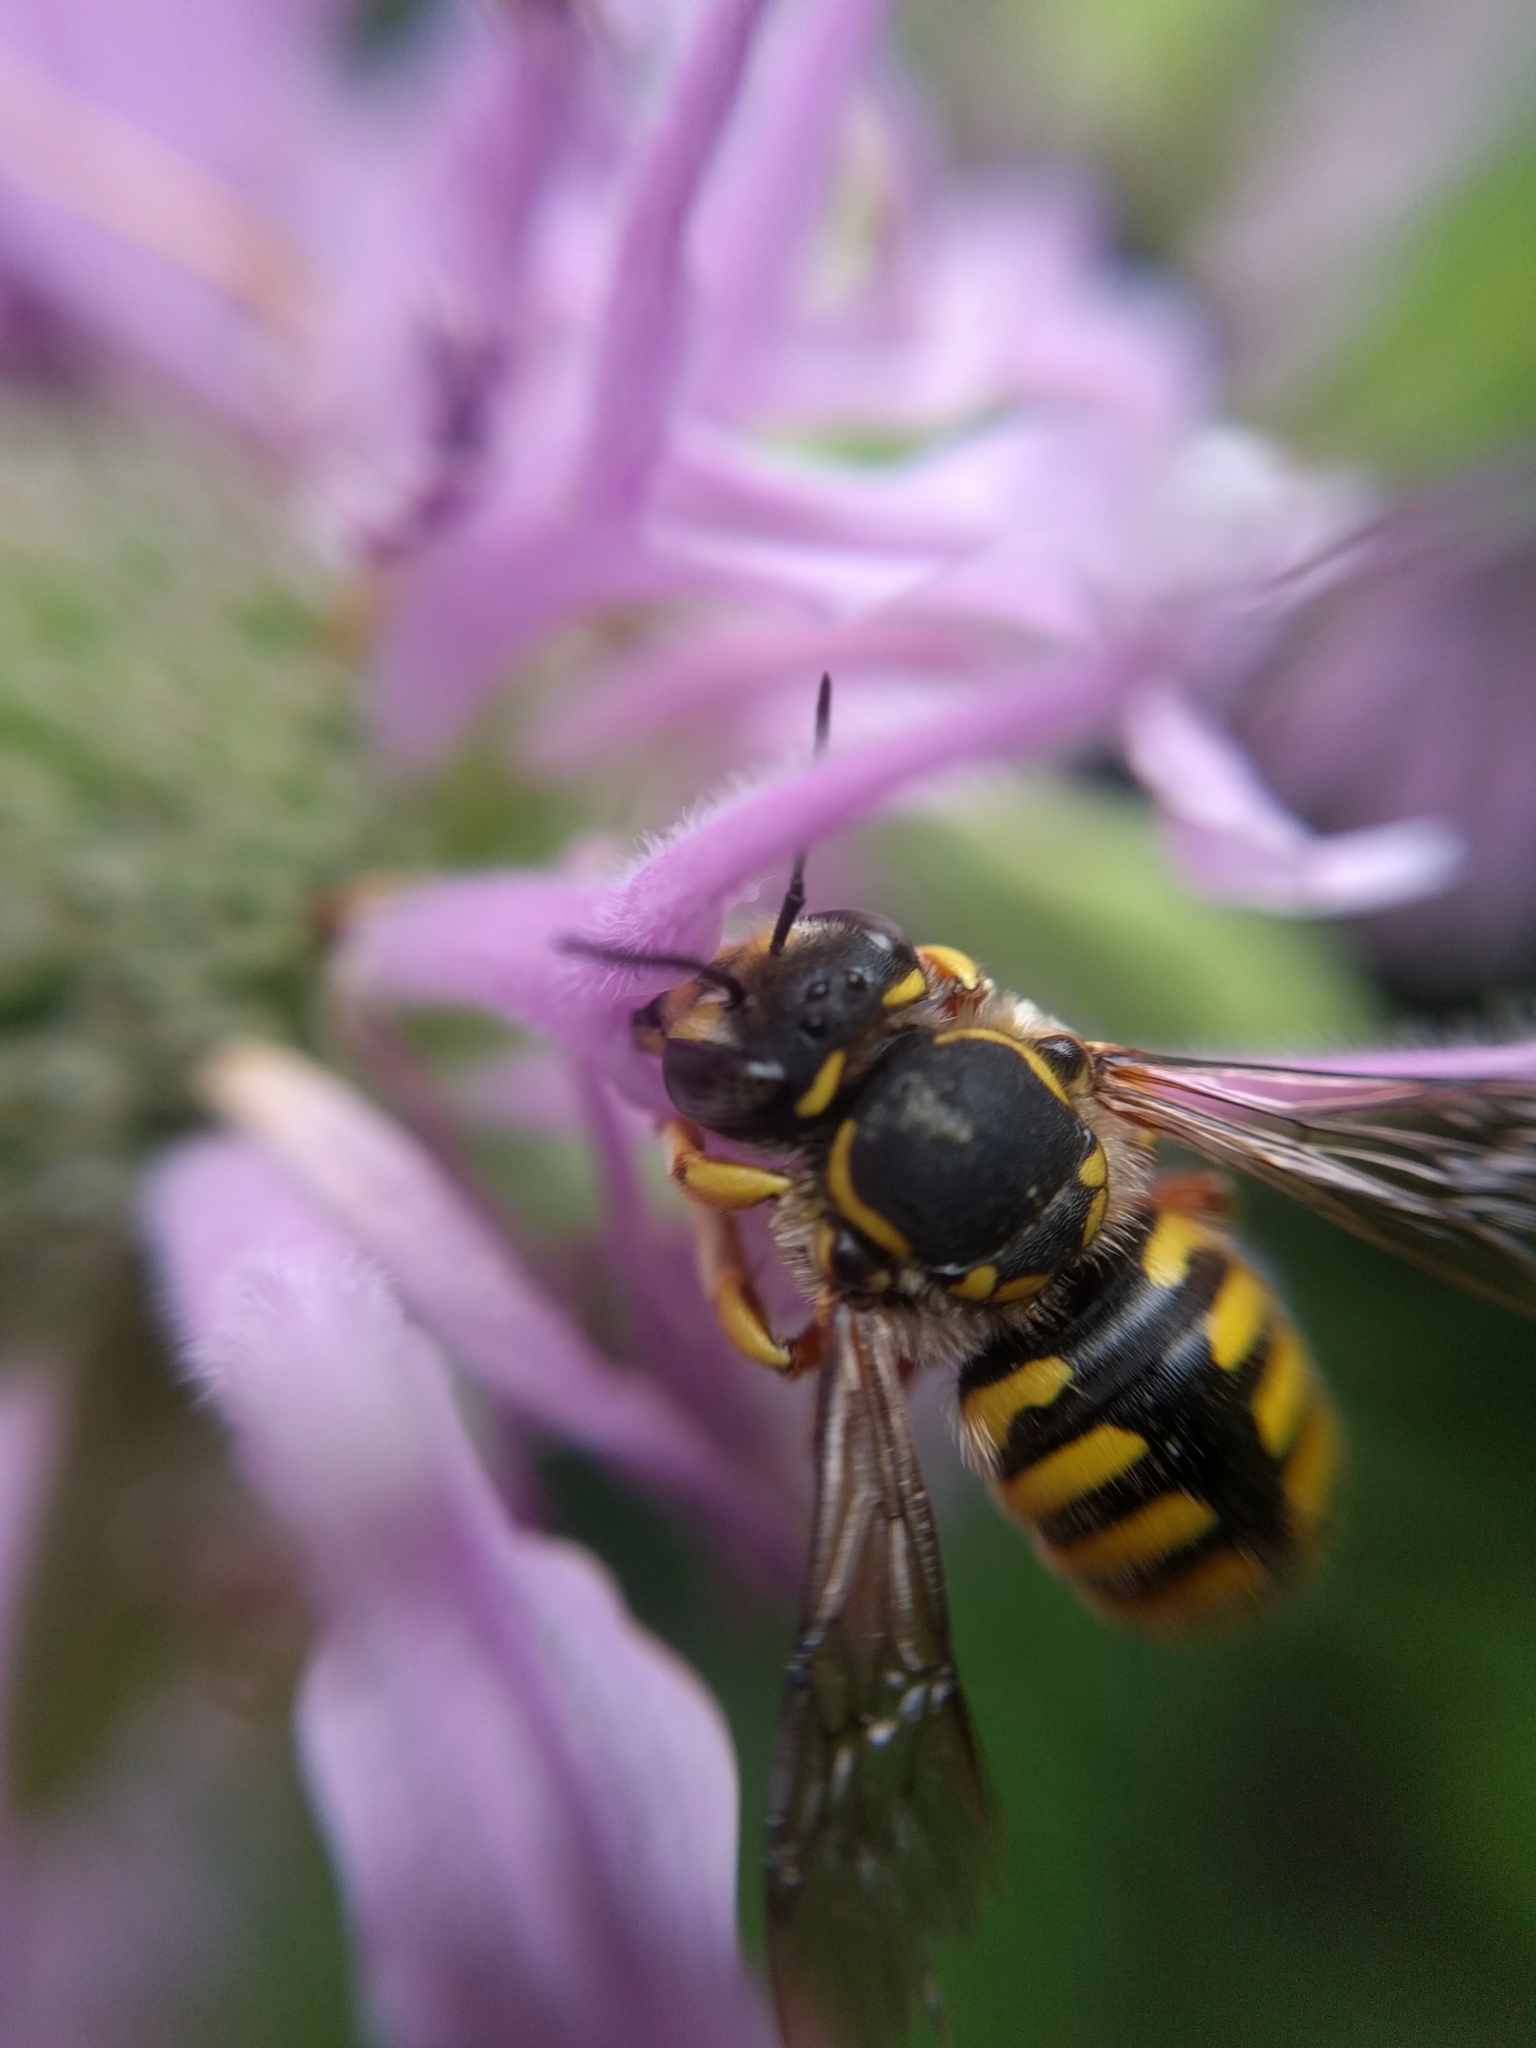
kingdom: Animalia
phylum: Arthropoda
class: Insecta
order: Hymenoptera
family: Megachilidae
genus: Anthidium
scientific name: Anthidium manicatum
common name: Wool carder bee
